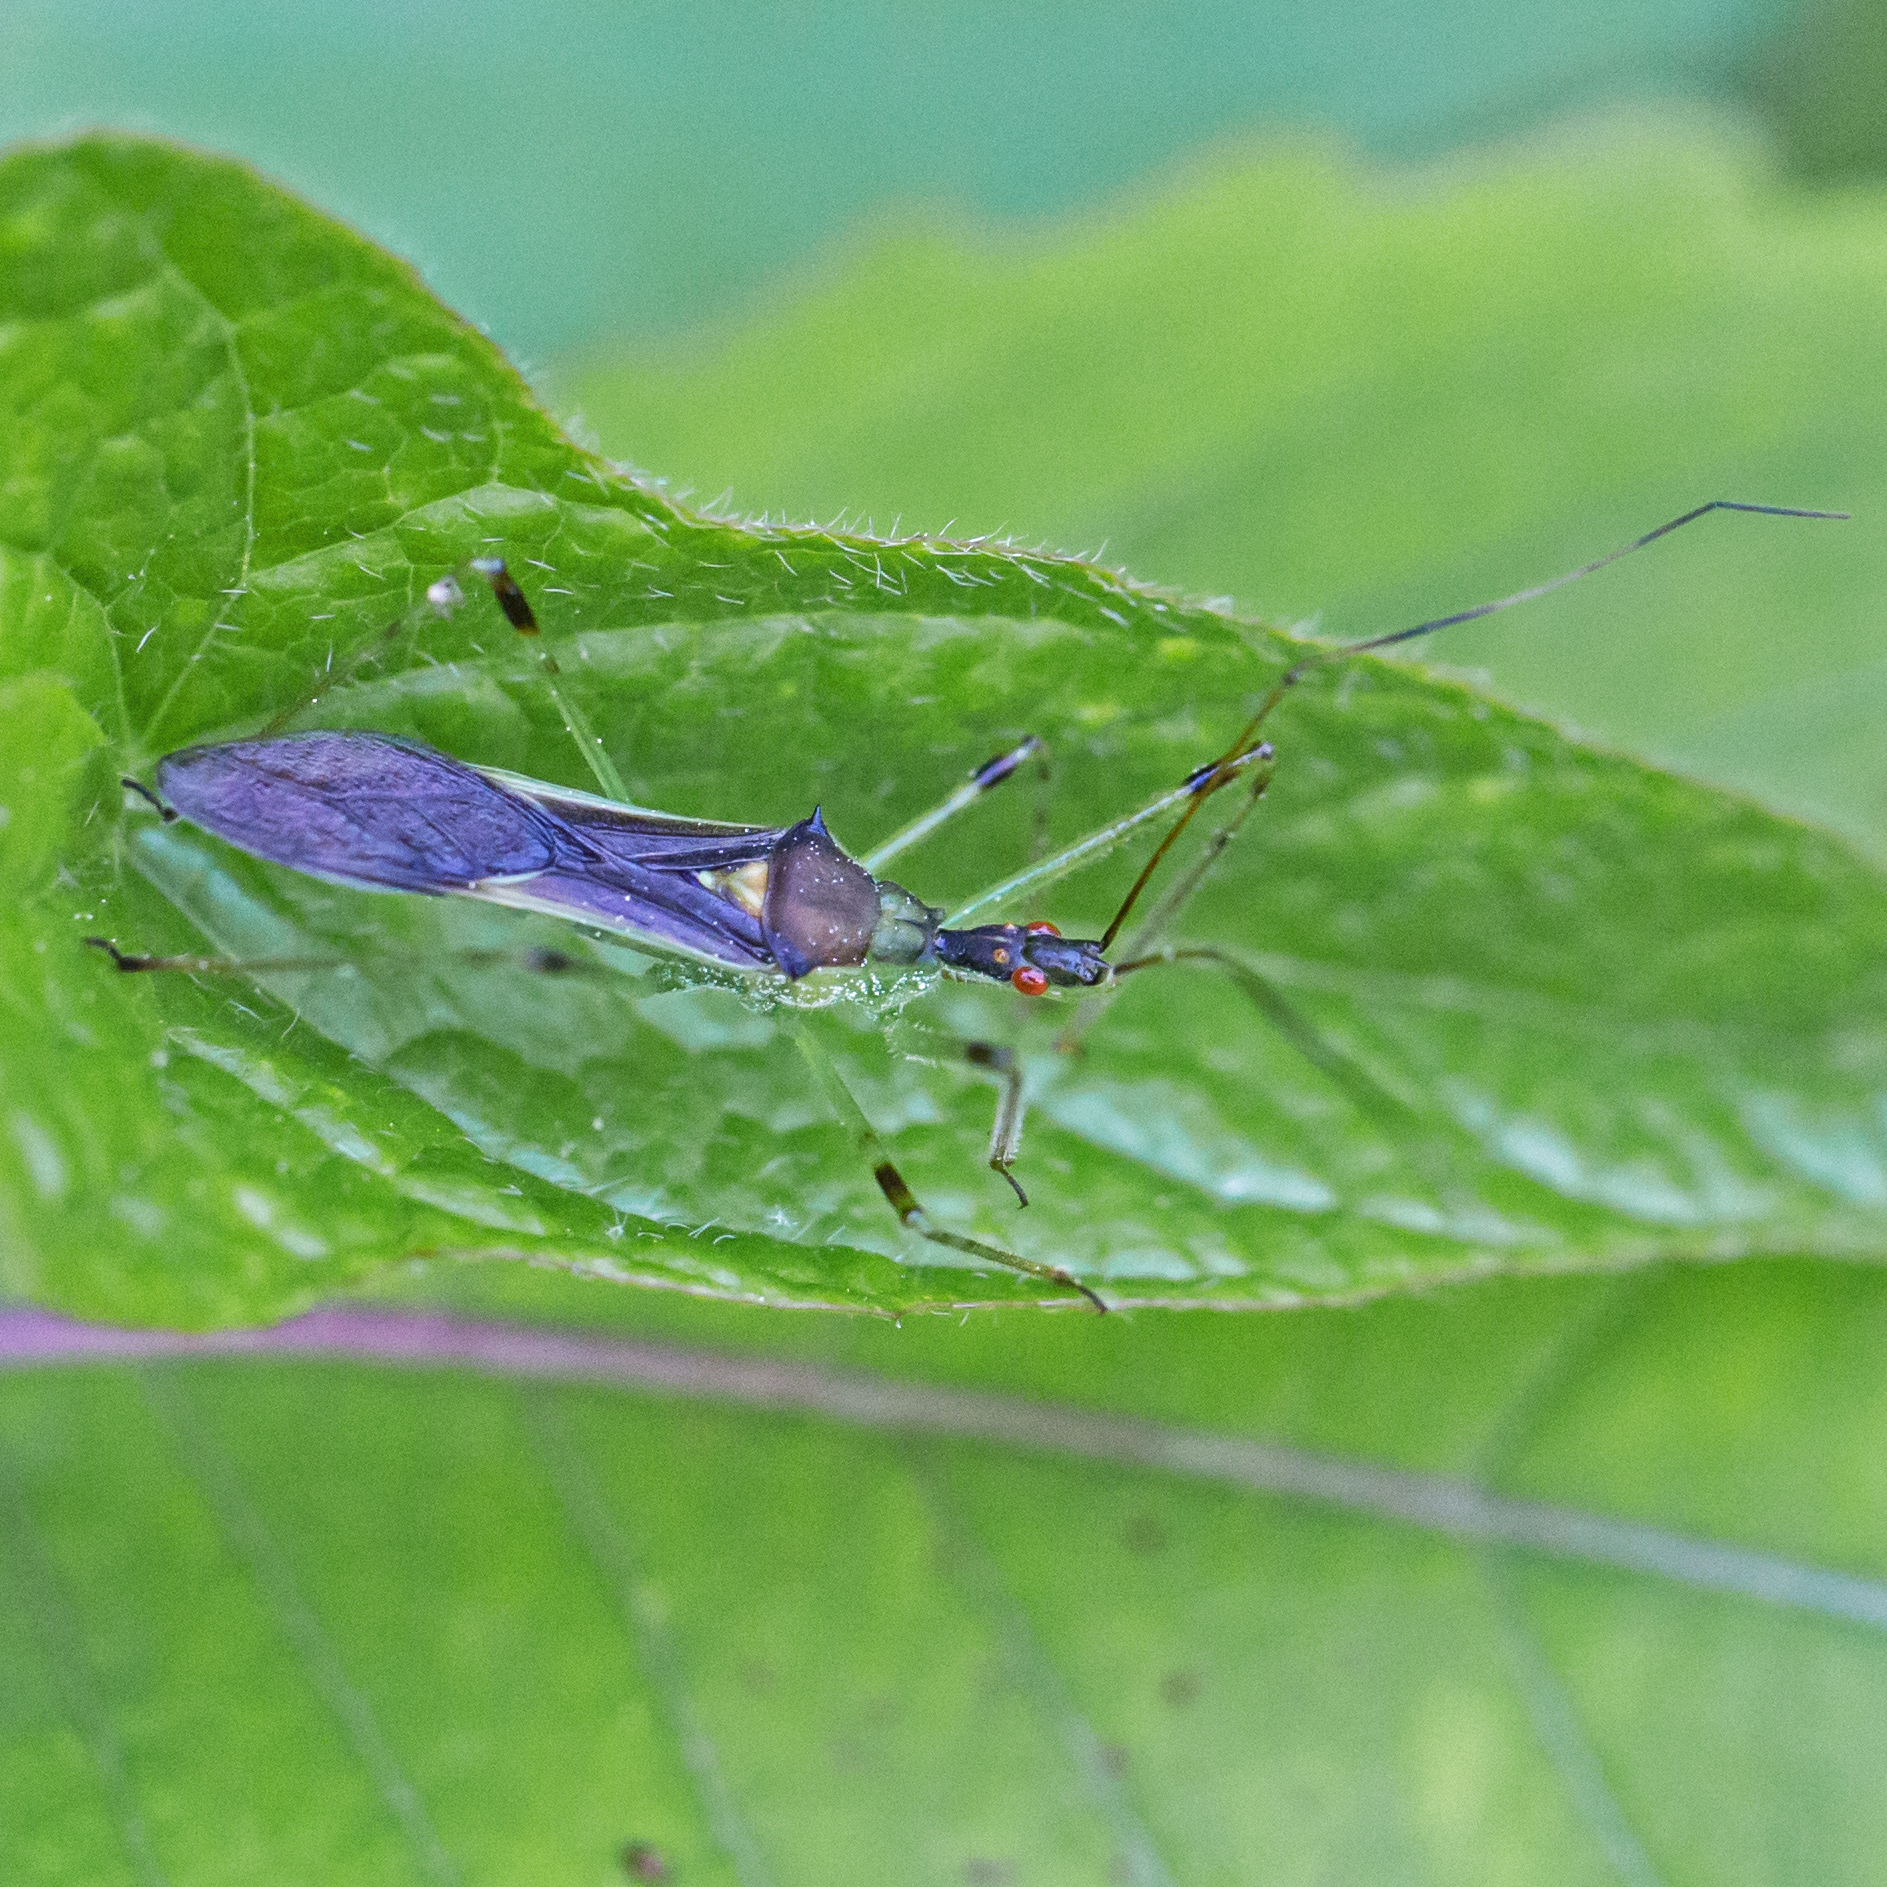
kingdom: Animalia
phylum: Arthropoda
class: Insecta
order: Hemiptera
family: Reduviidae
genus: Zelus
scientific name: Zelus luridus
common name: Pale green assassin bug
